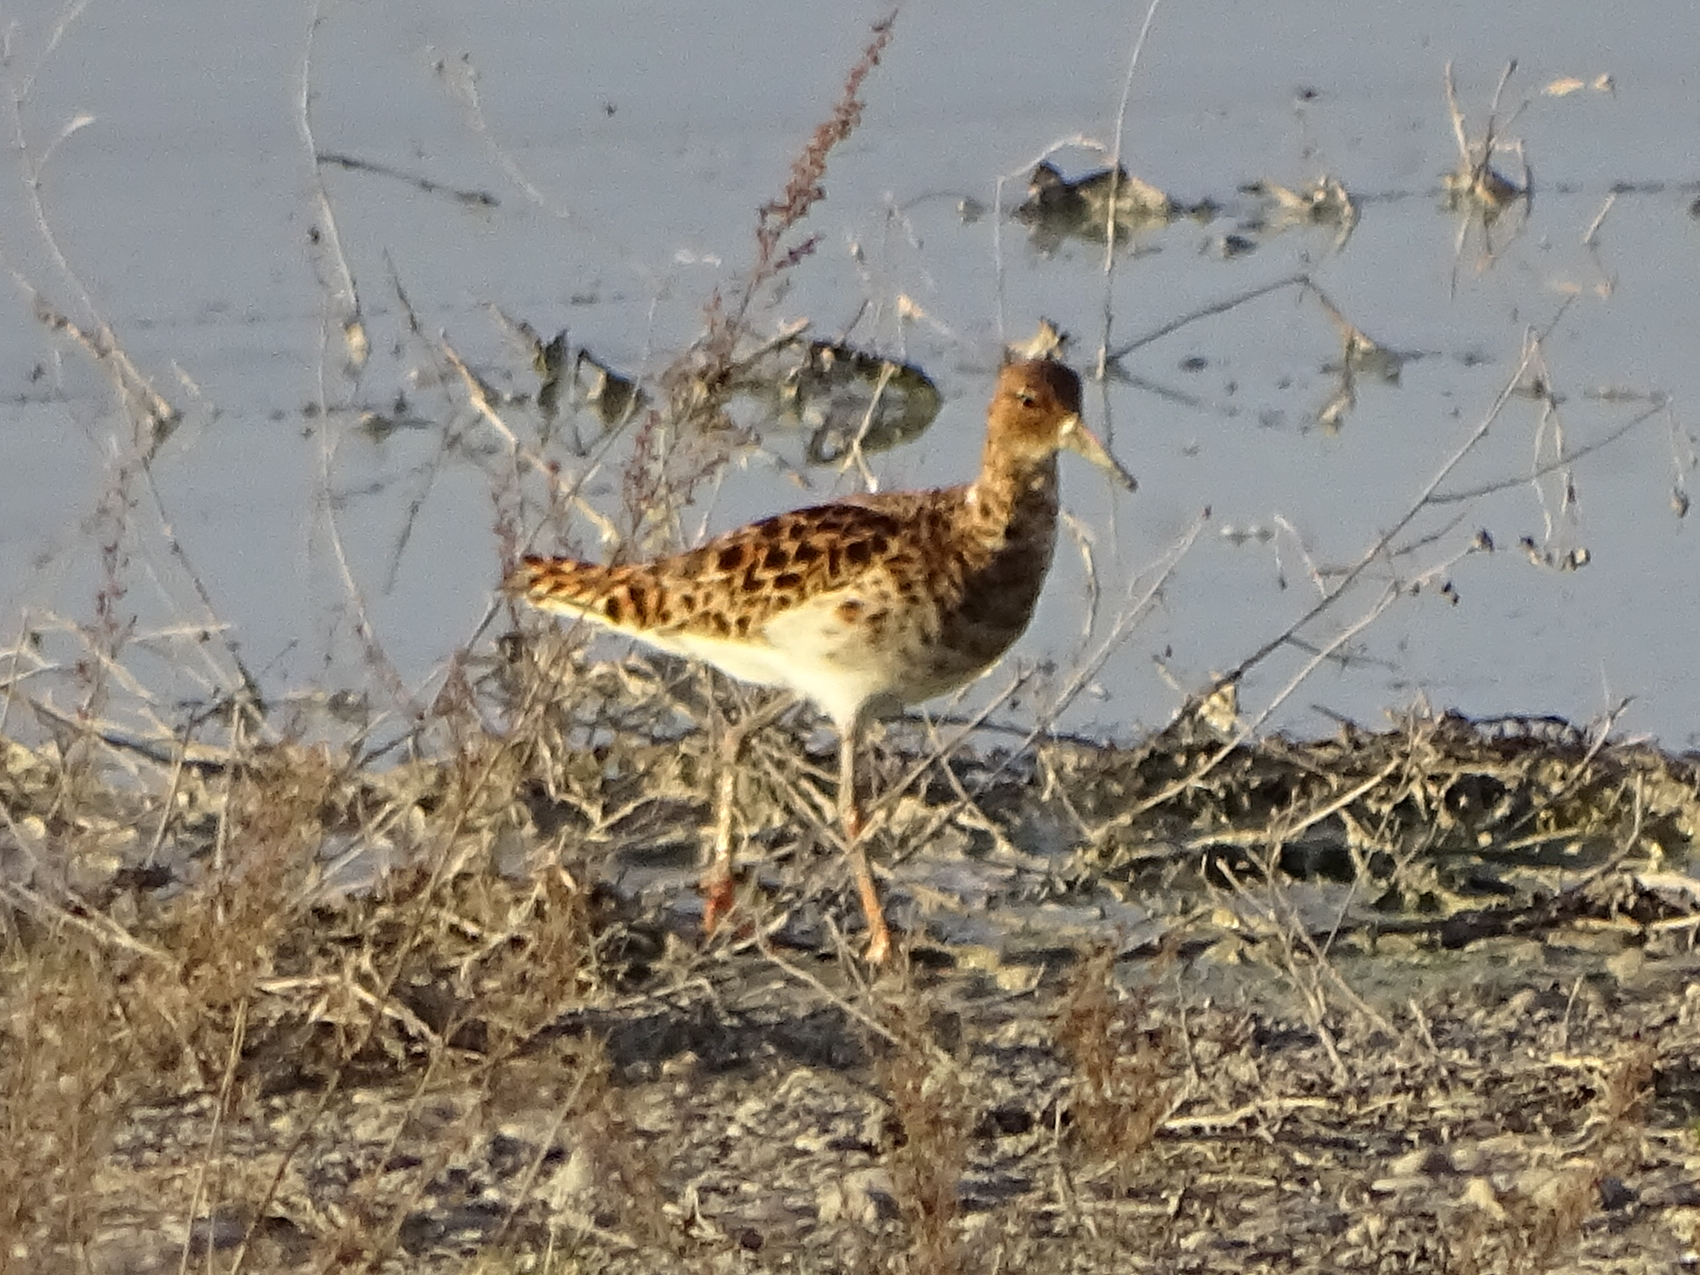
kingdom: Animalia
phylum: Chordata
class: Aves
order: Charadriiformes
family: Scolopacidae
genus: Calidris
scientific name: Calidris pugnax
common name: Ruff
